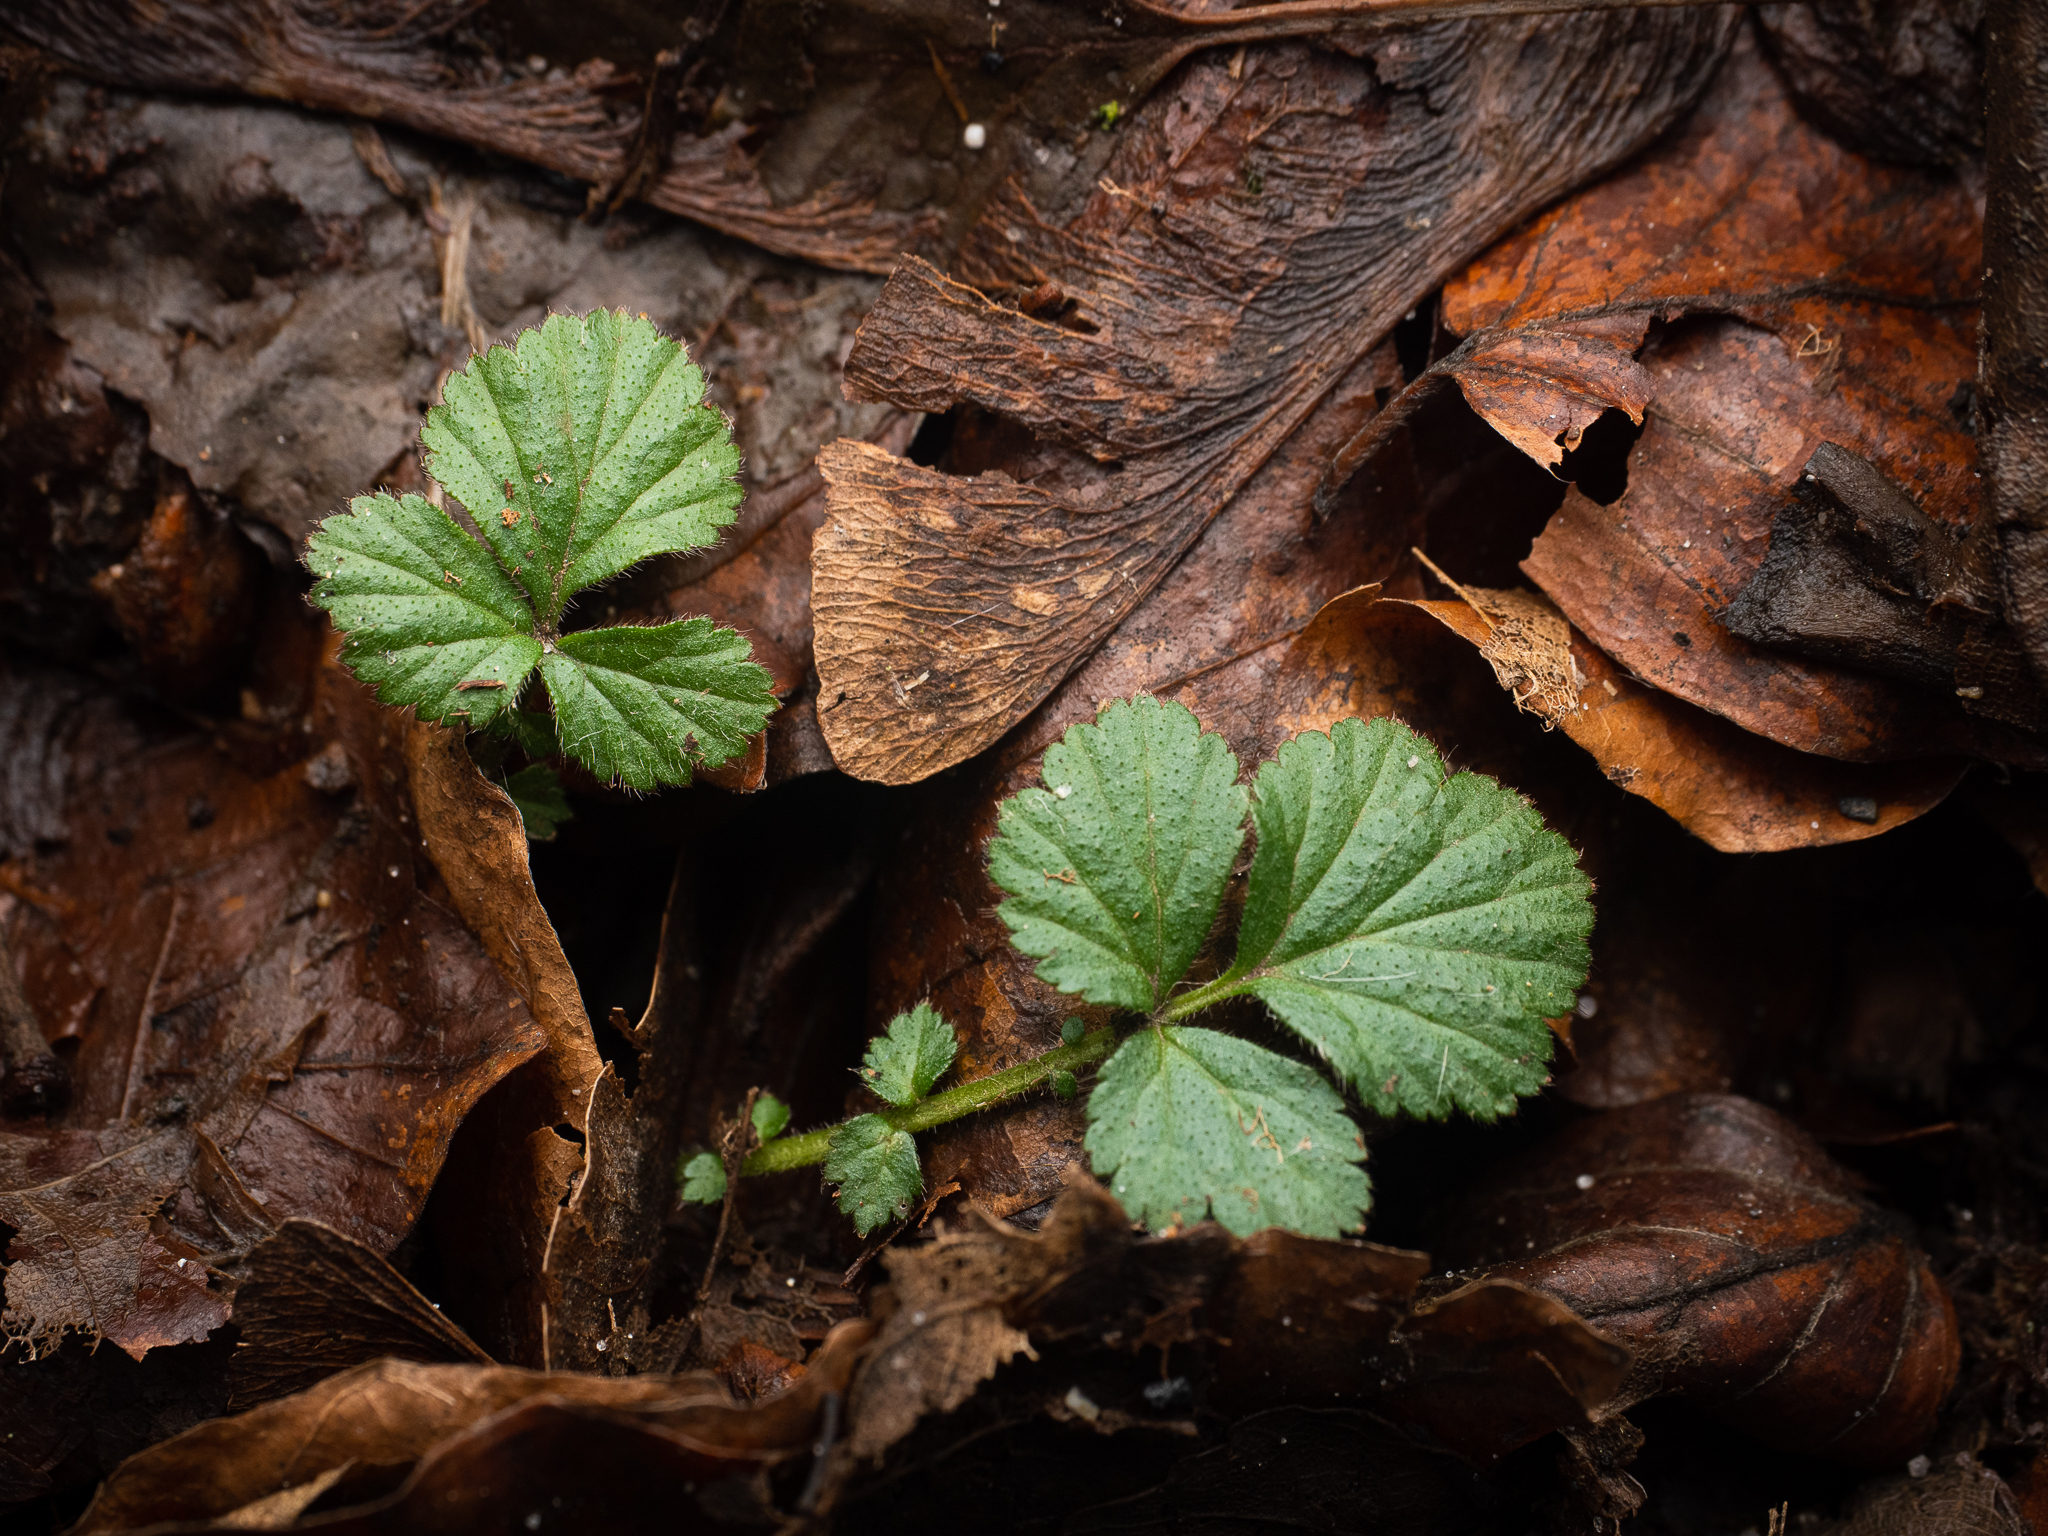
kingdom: Plantae
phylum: Tracheophyta
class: Magnoliopsida
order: Rosales
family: Rosaceae
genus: Geum
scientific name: Geum urbanum
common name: Wood avens
